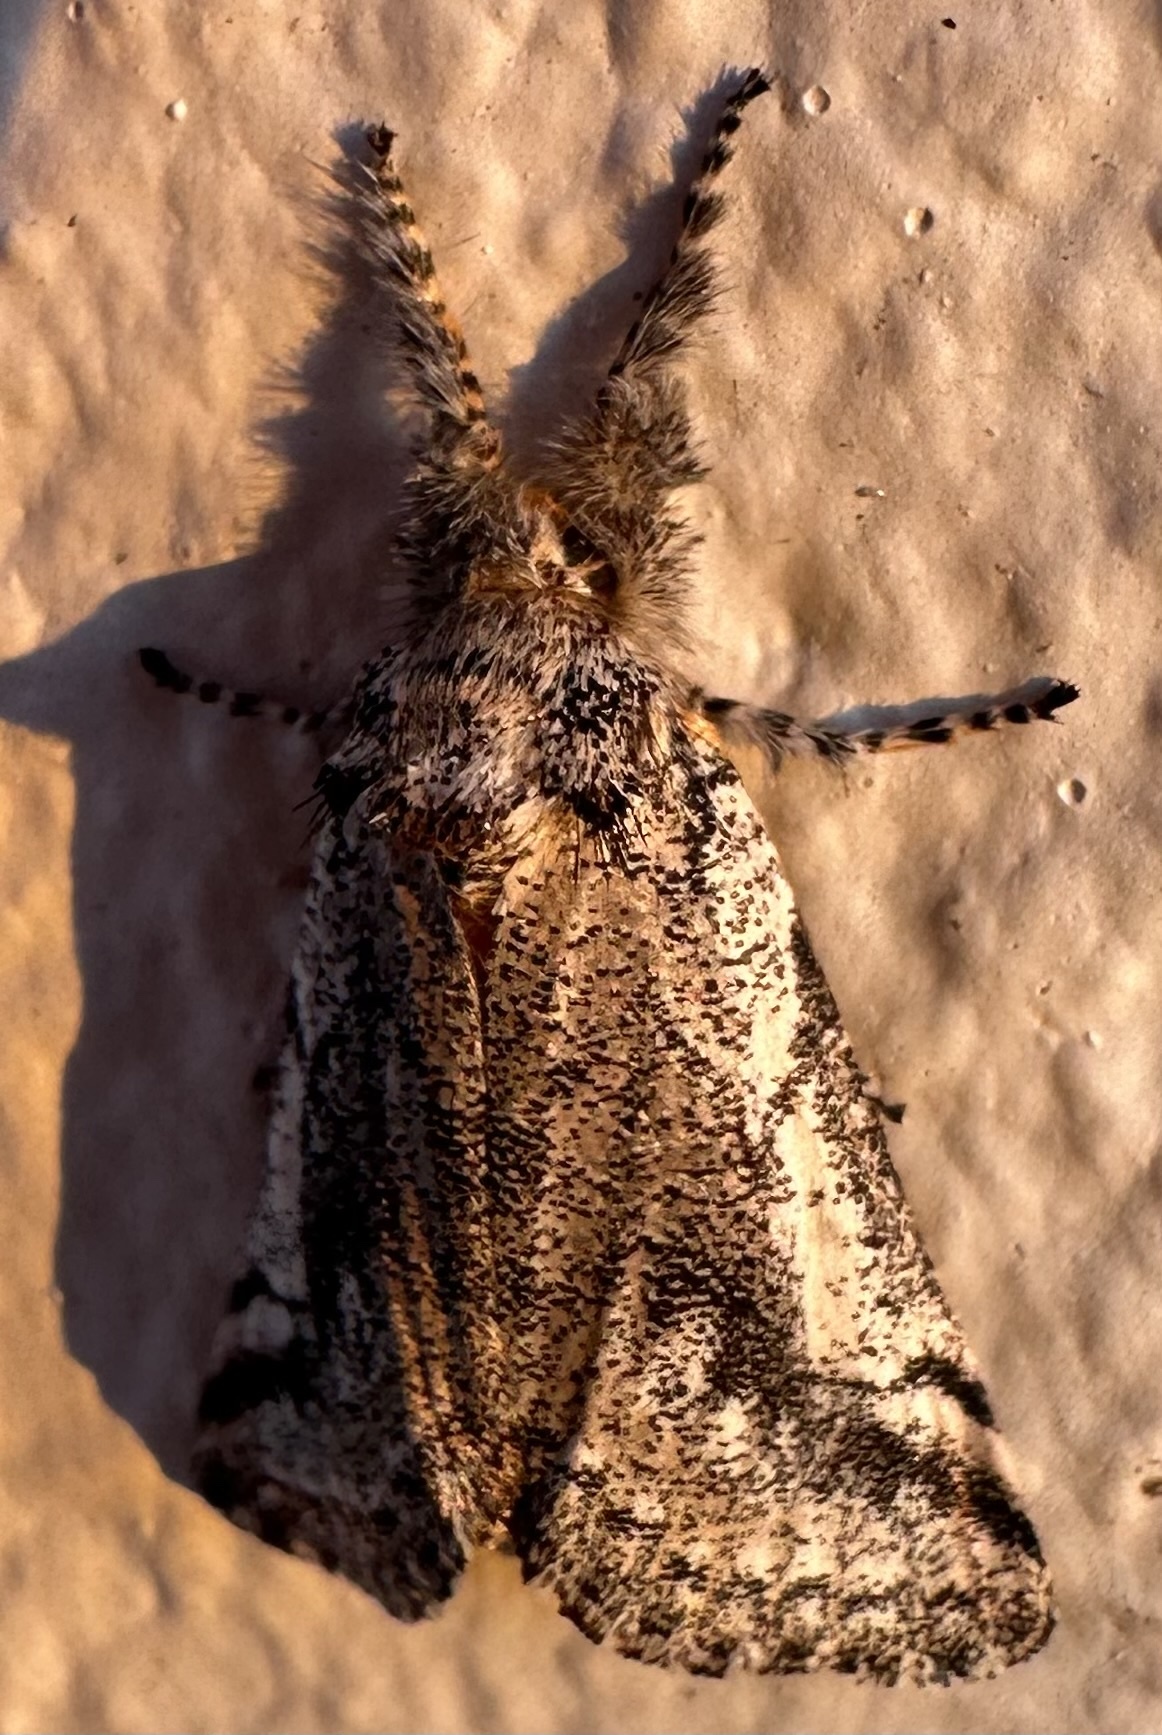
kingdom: Animalia
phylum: Arthropoda
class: Insecta
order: Lepidoptera
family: Erebidae
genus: Tearosoma
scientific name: Tearosoma aspersum
